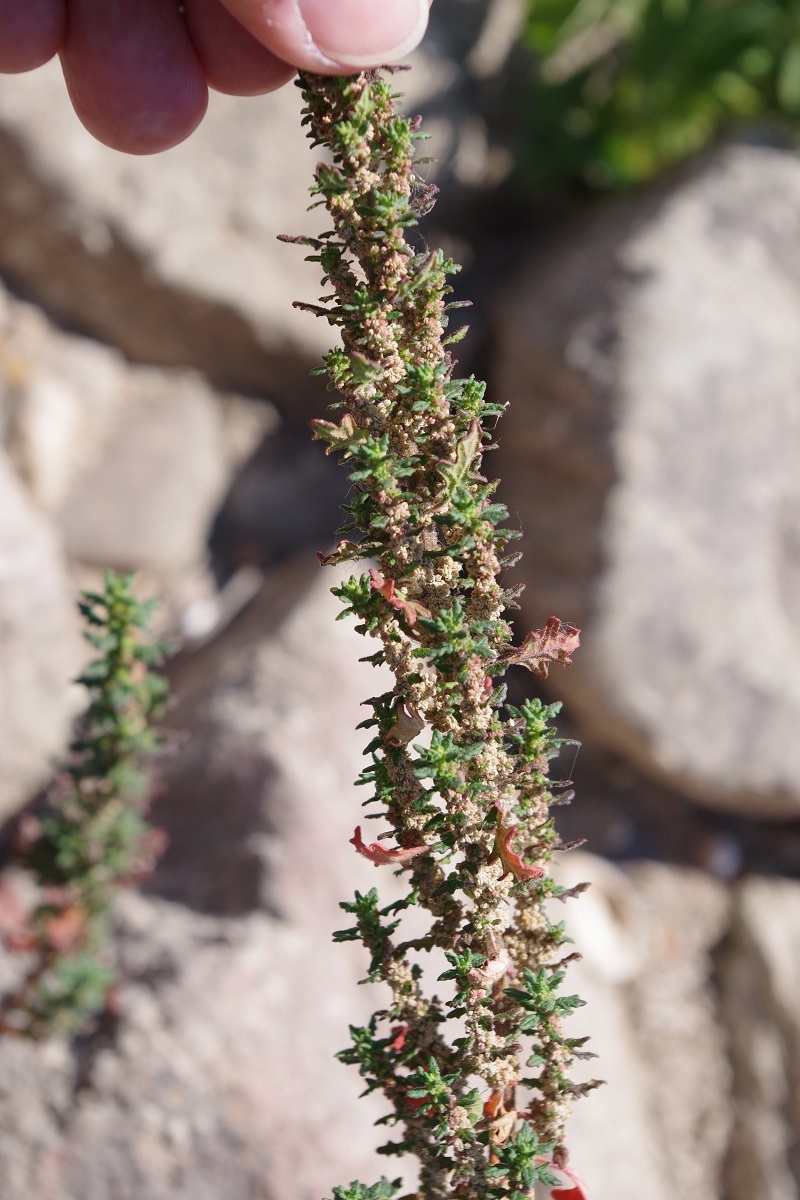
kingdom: Plantae
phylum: Tracheophyta
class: Magnoliopsida
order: Caryophyllales
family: Amaranthaceae
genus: Dysphania
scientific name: Dysphania pumilio
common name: Clammy goosefoot
